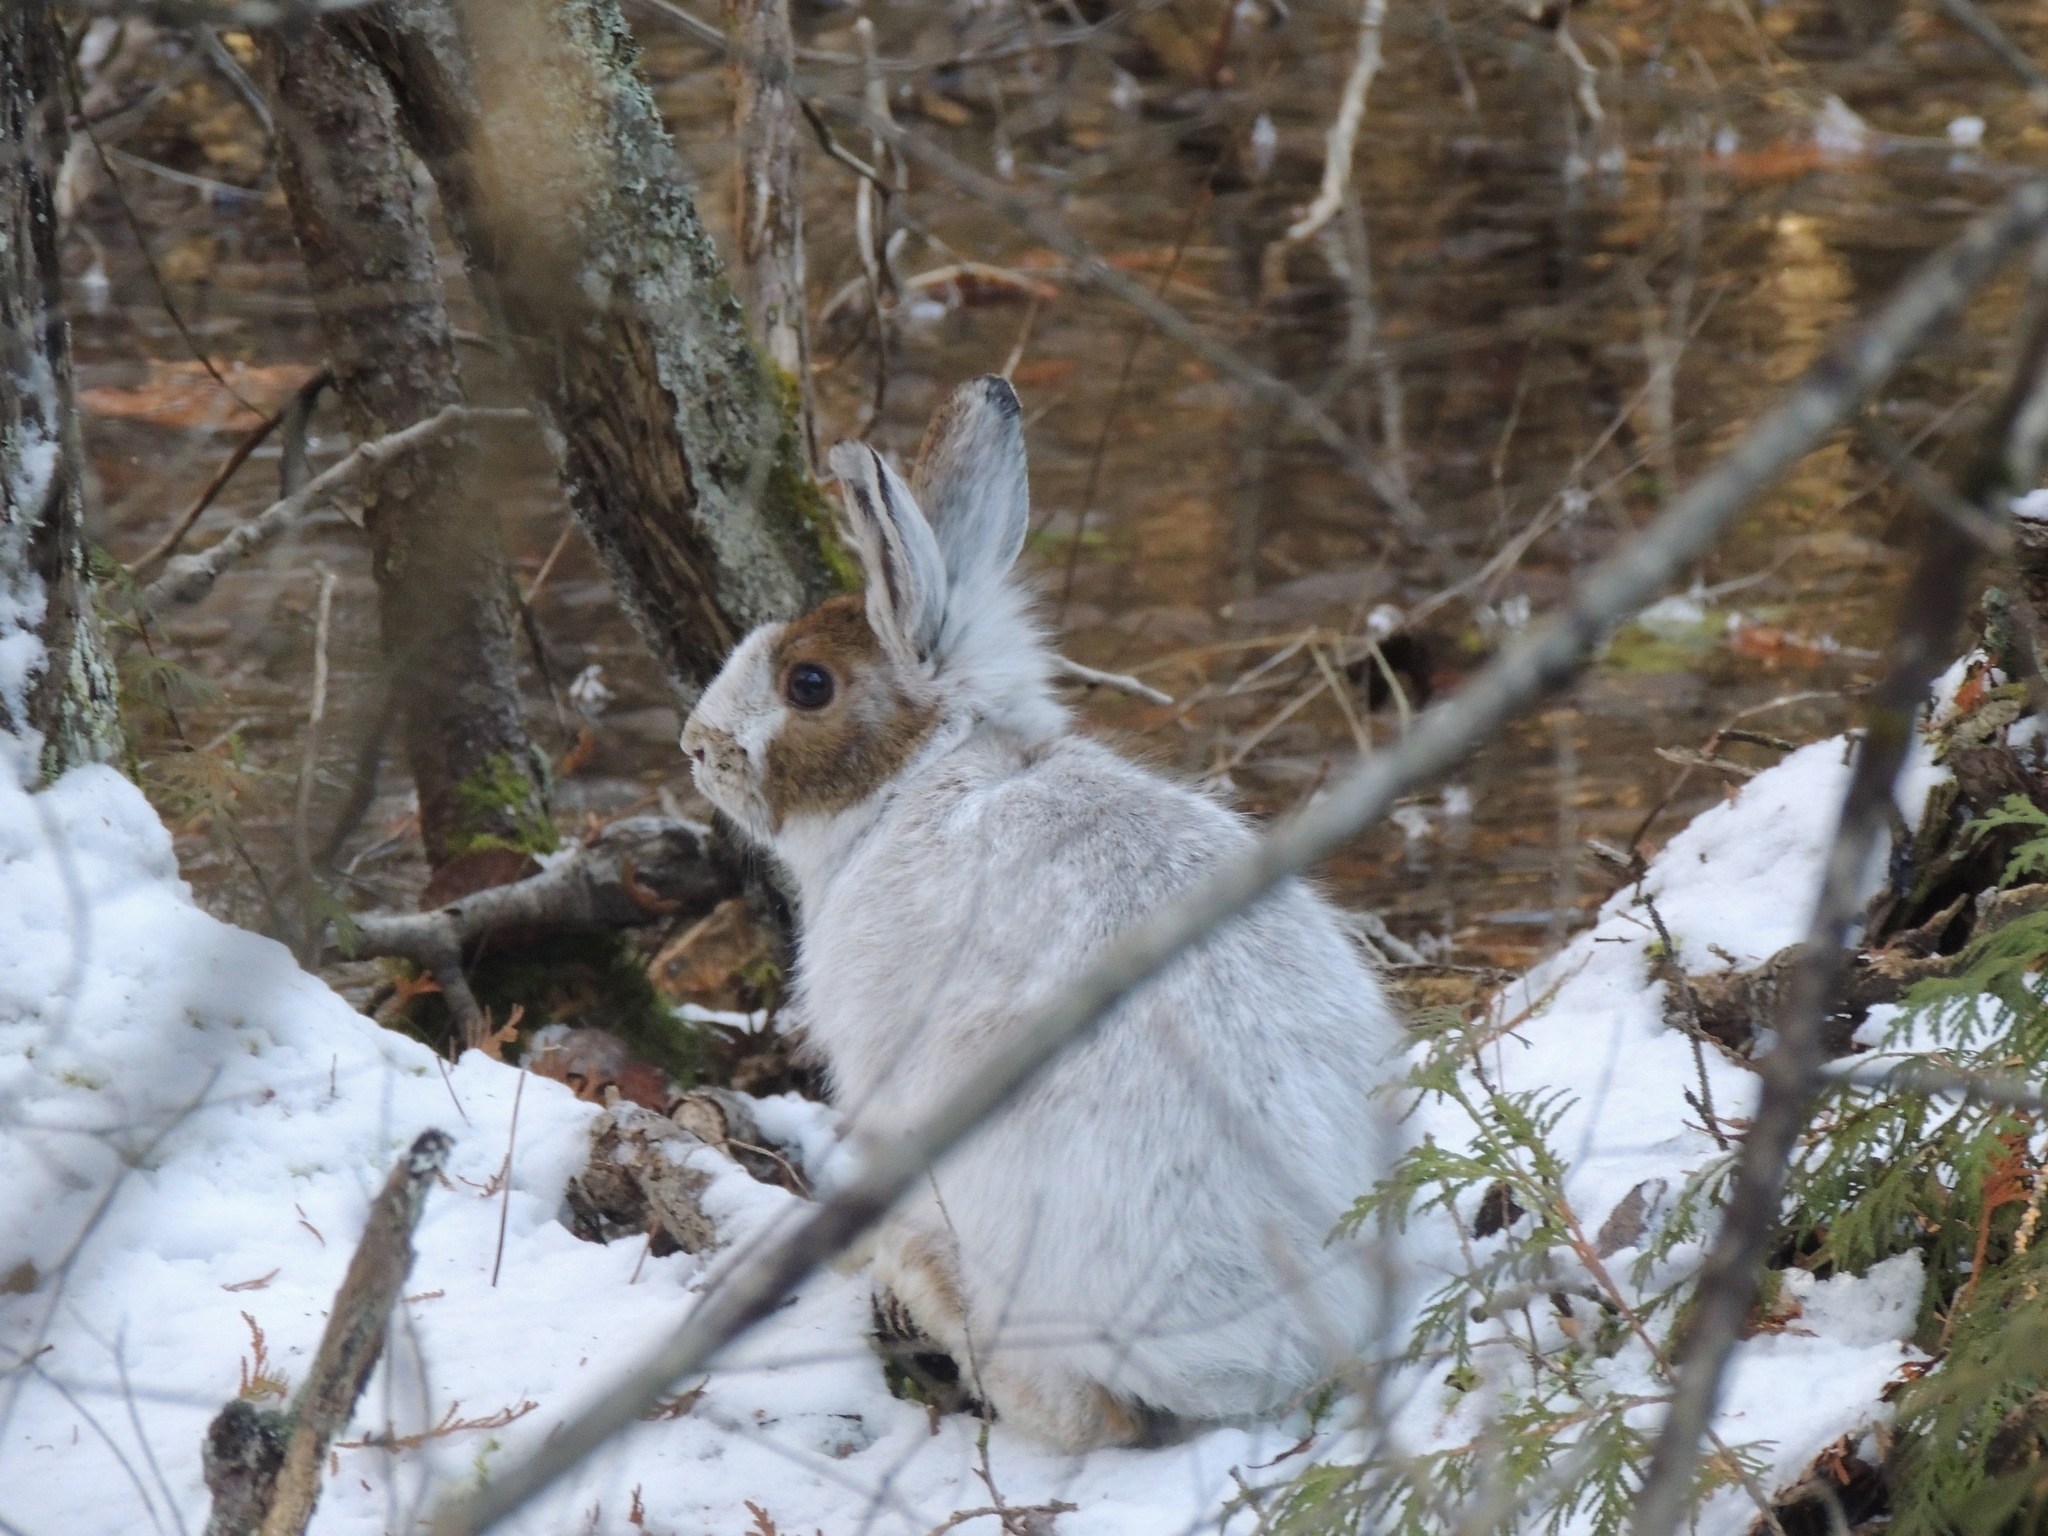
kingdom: Animalia
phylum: Chordata
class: Mammalia
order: Lagomorpha
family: Leporidae
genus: Lepus
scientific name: Lepus americanus
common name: Snowshoe hare
